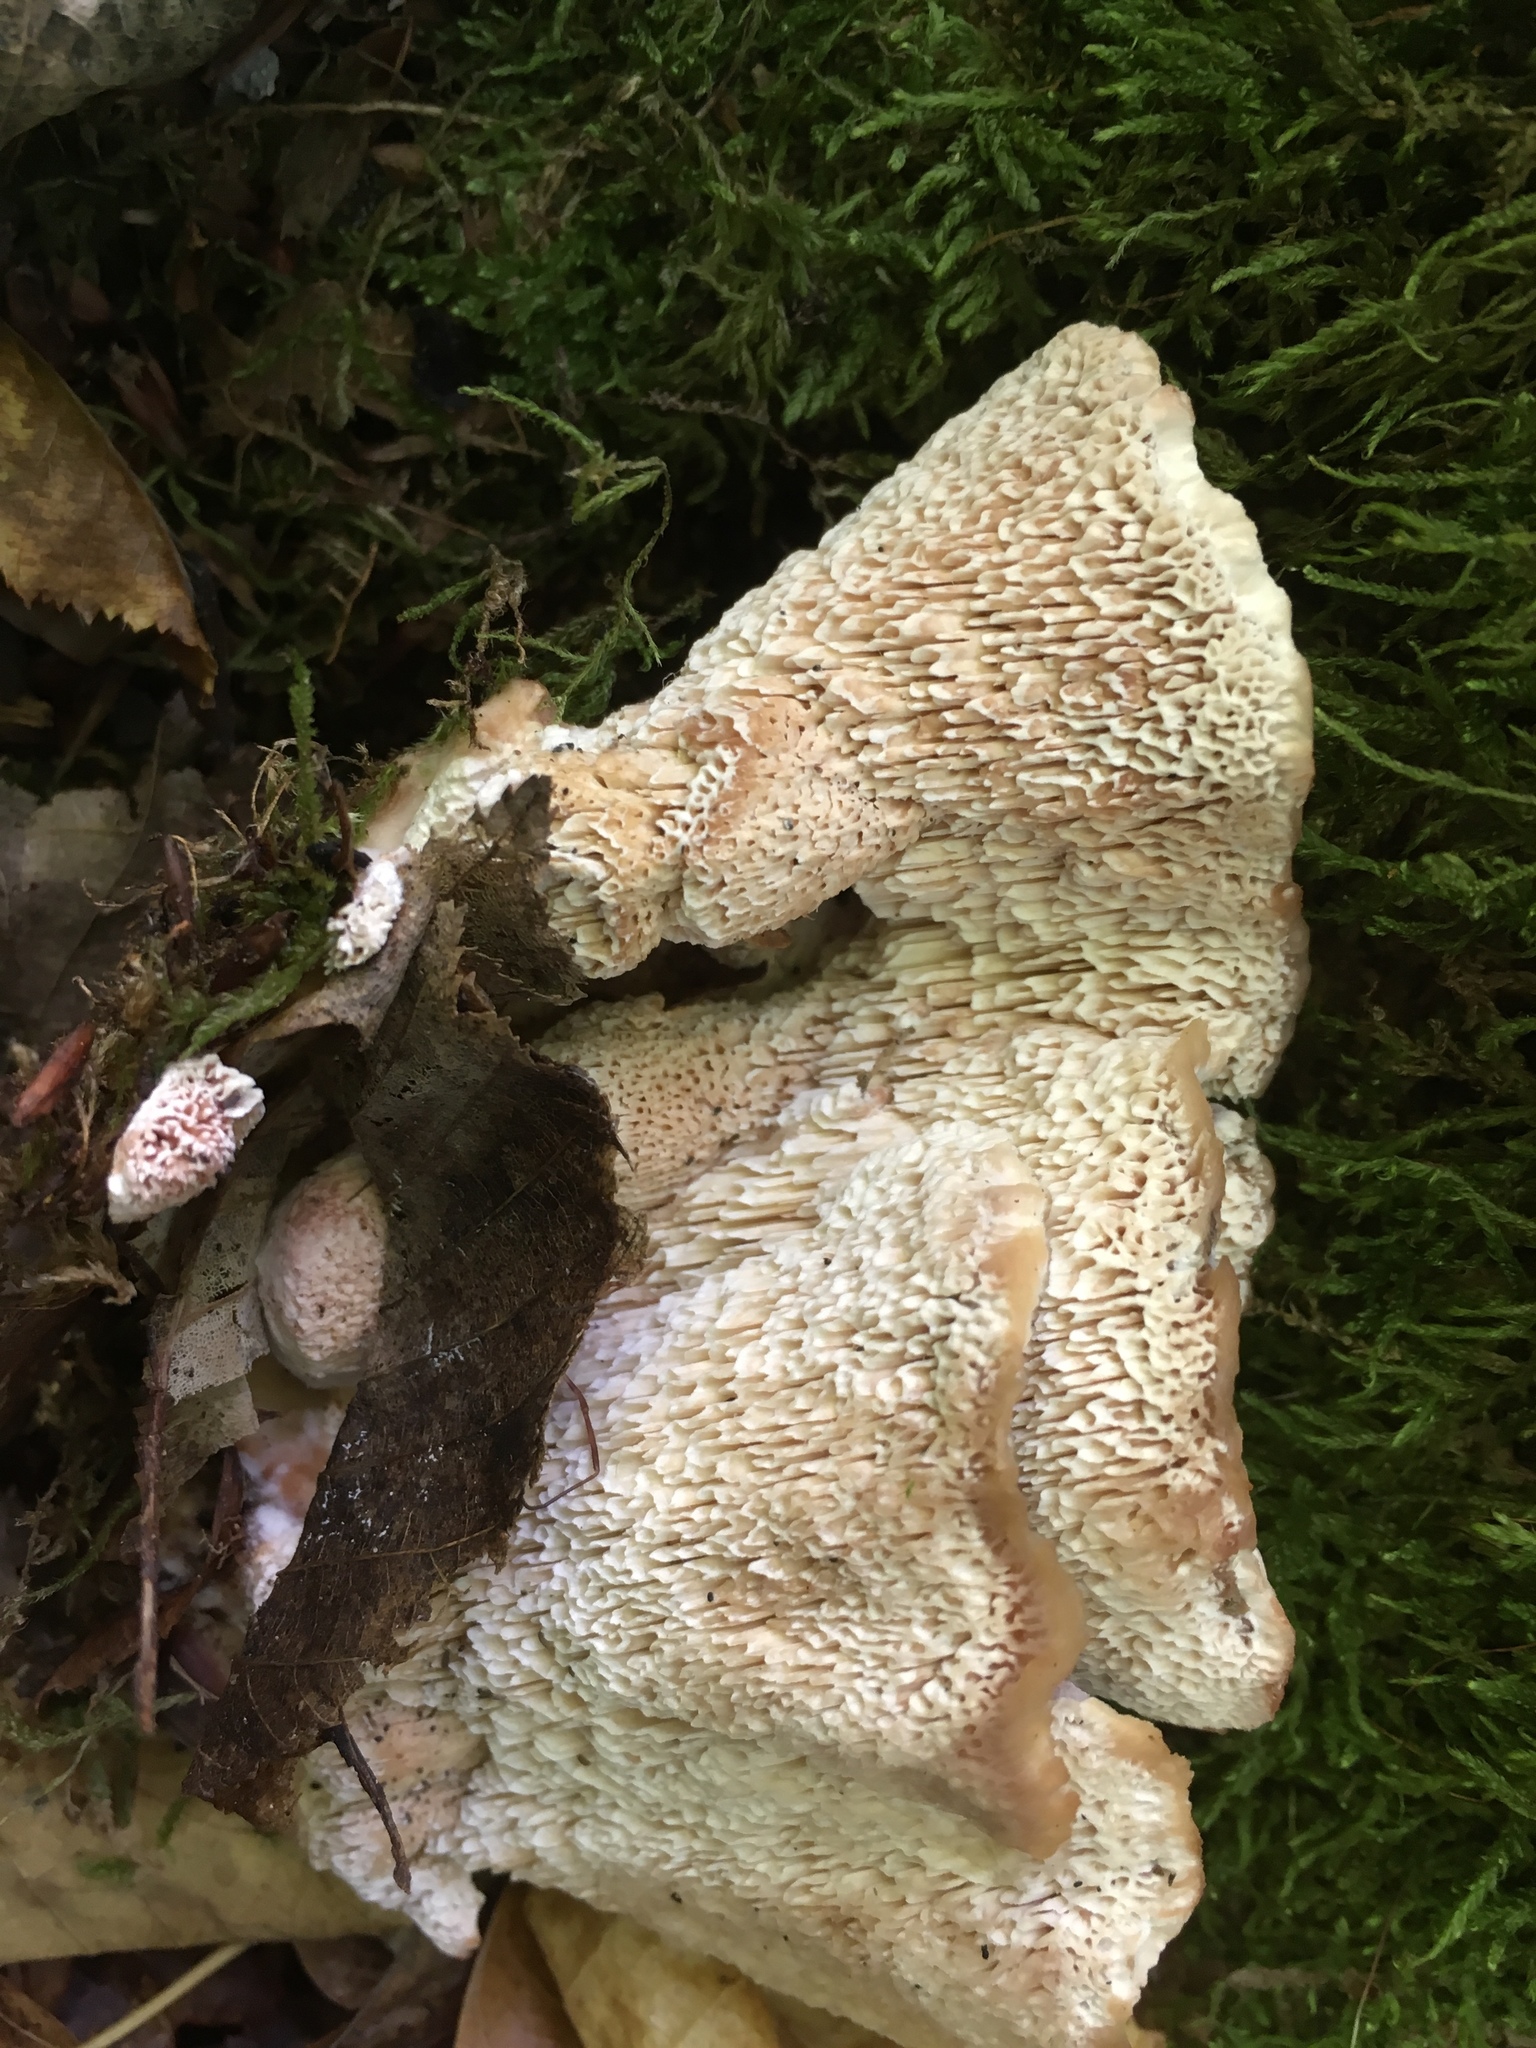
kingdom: Fungi
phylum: Basidiomycota
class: Agaricomycetes
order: Polyporales
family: Podoscyphaceae
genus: Abortiporus
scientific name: Abortiporus biennis
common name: Blushing rosette
